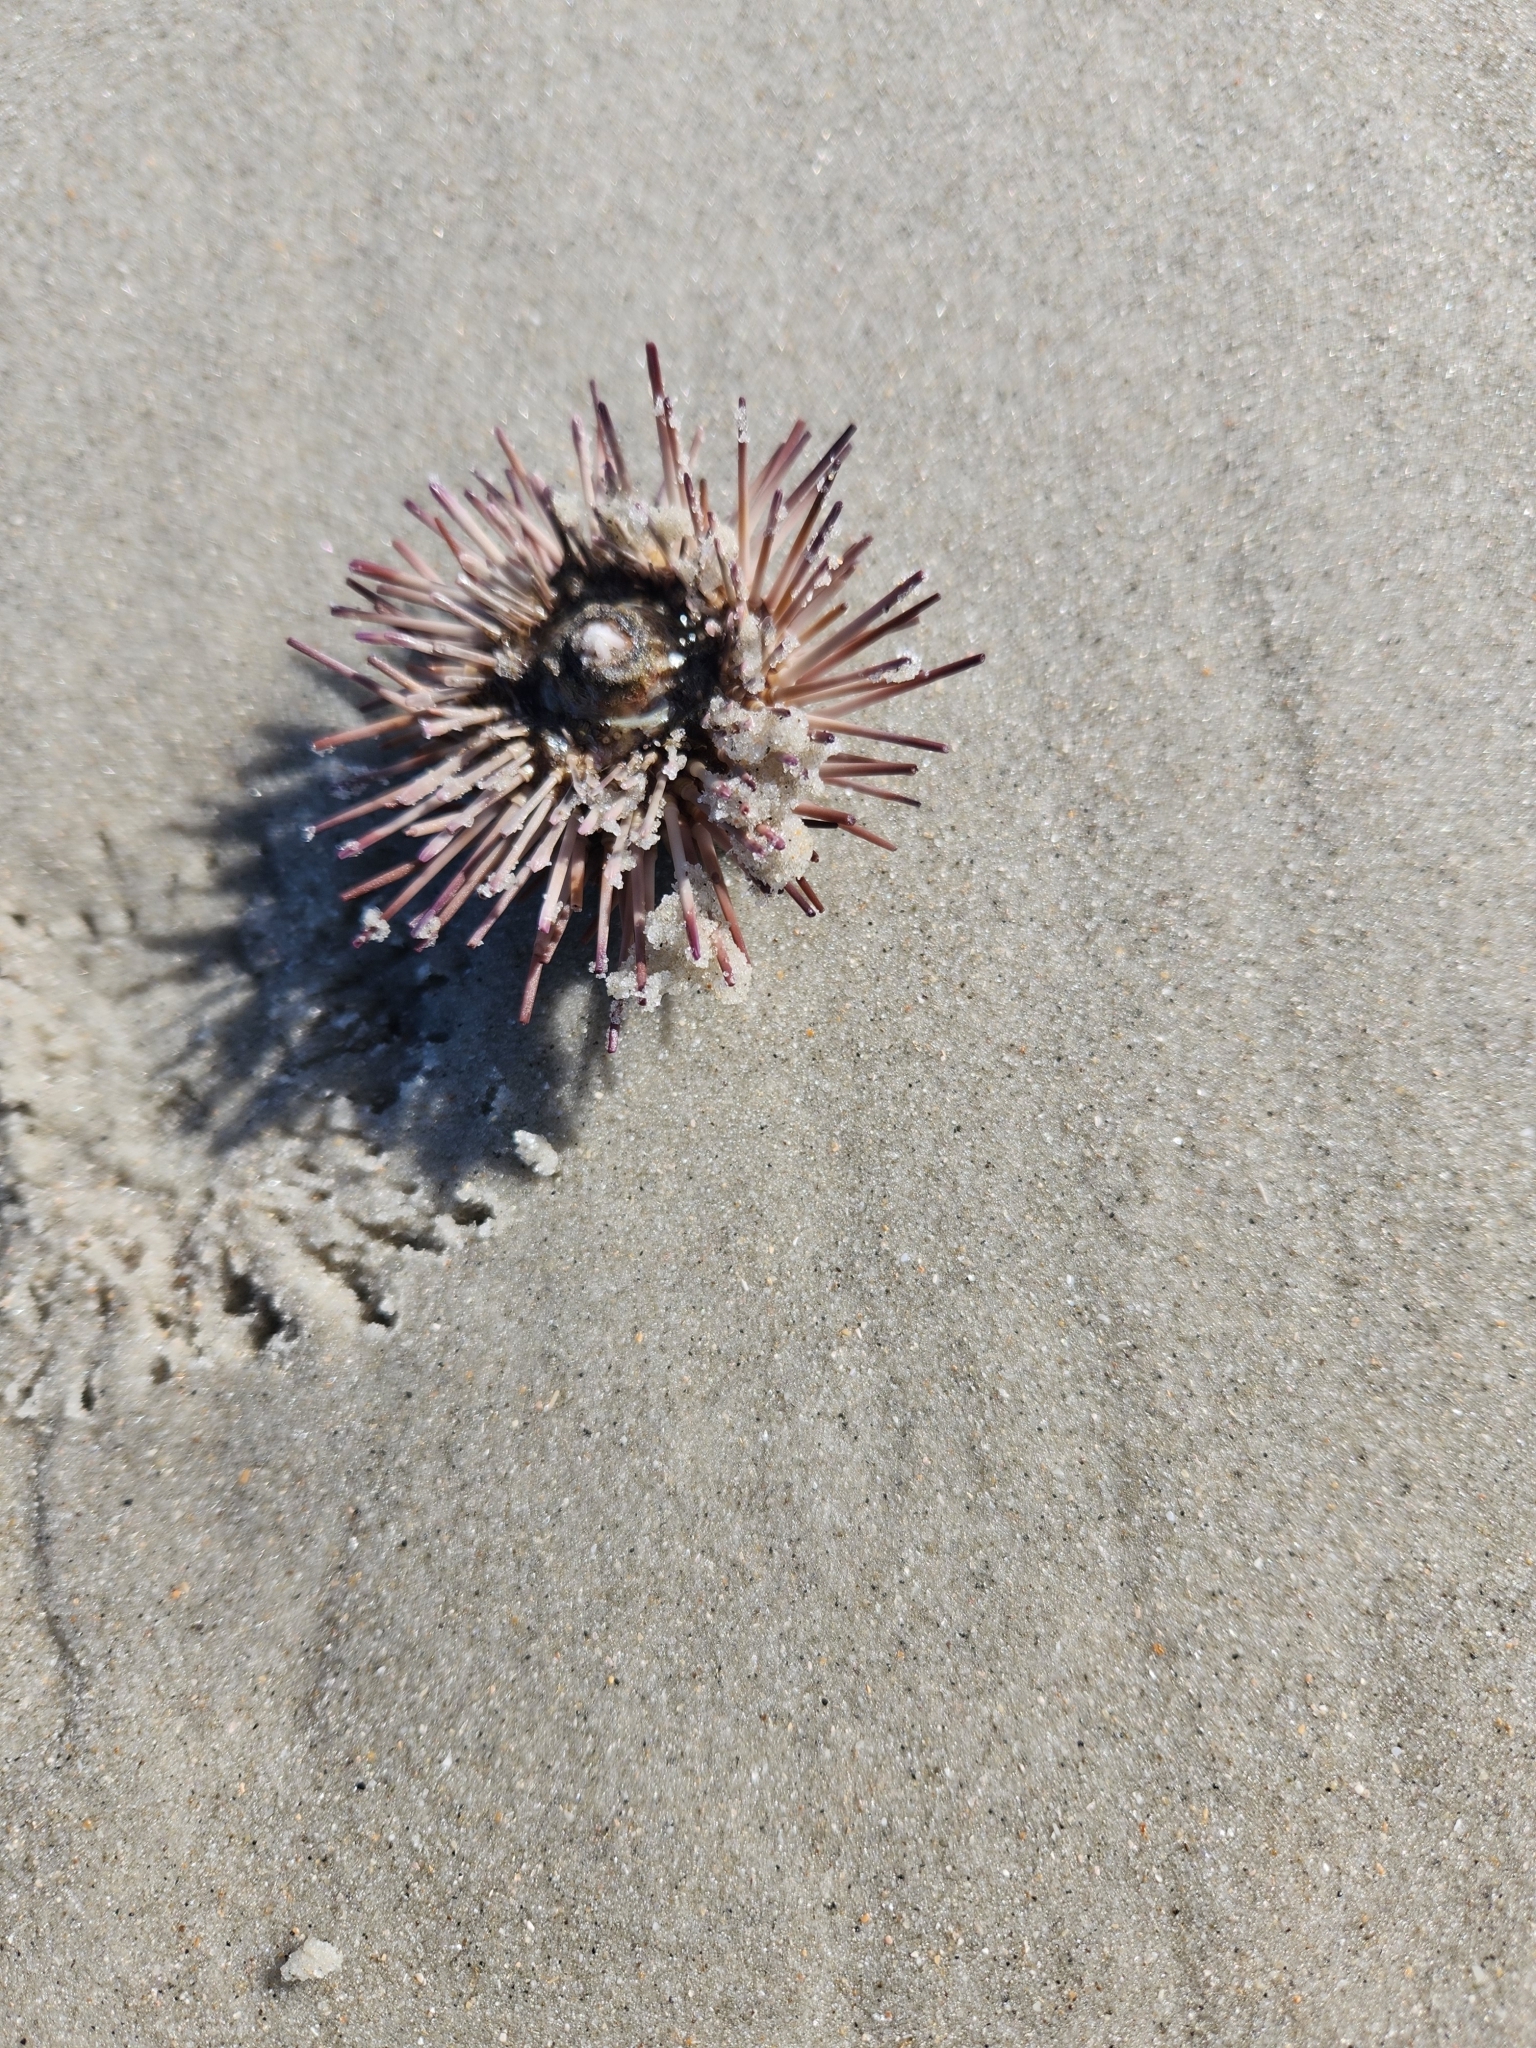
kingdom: Animalia
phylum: Echinodermata
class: Echinoidea
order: Arbacioida
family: Arbaciidae
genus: Arbacia
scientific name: Arbacia punctulata
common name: Purple-spined sea urchin
